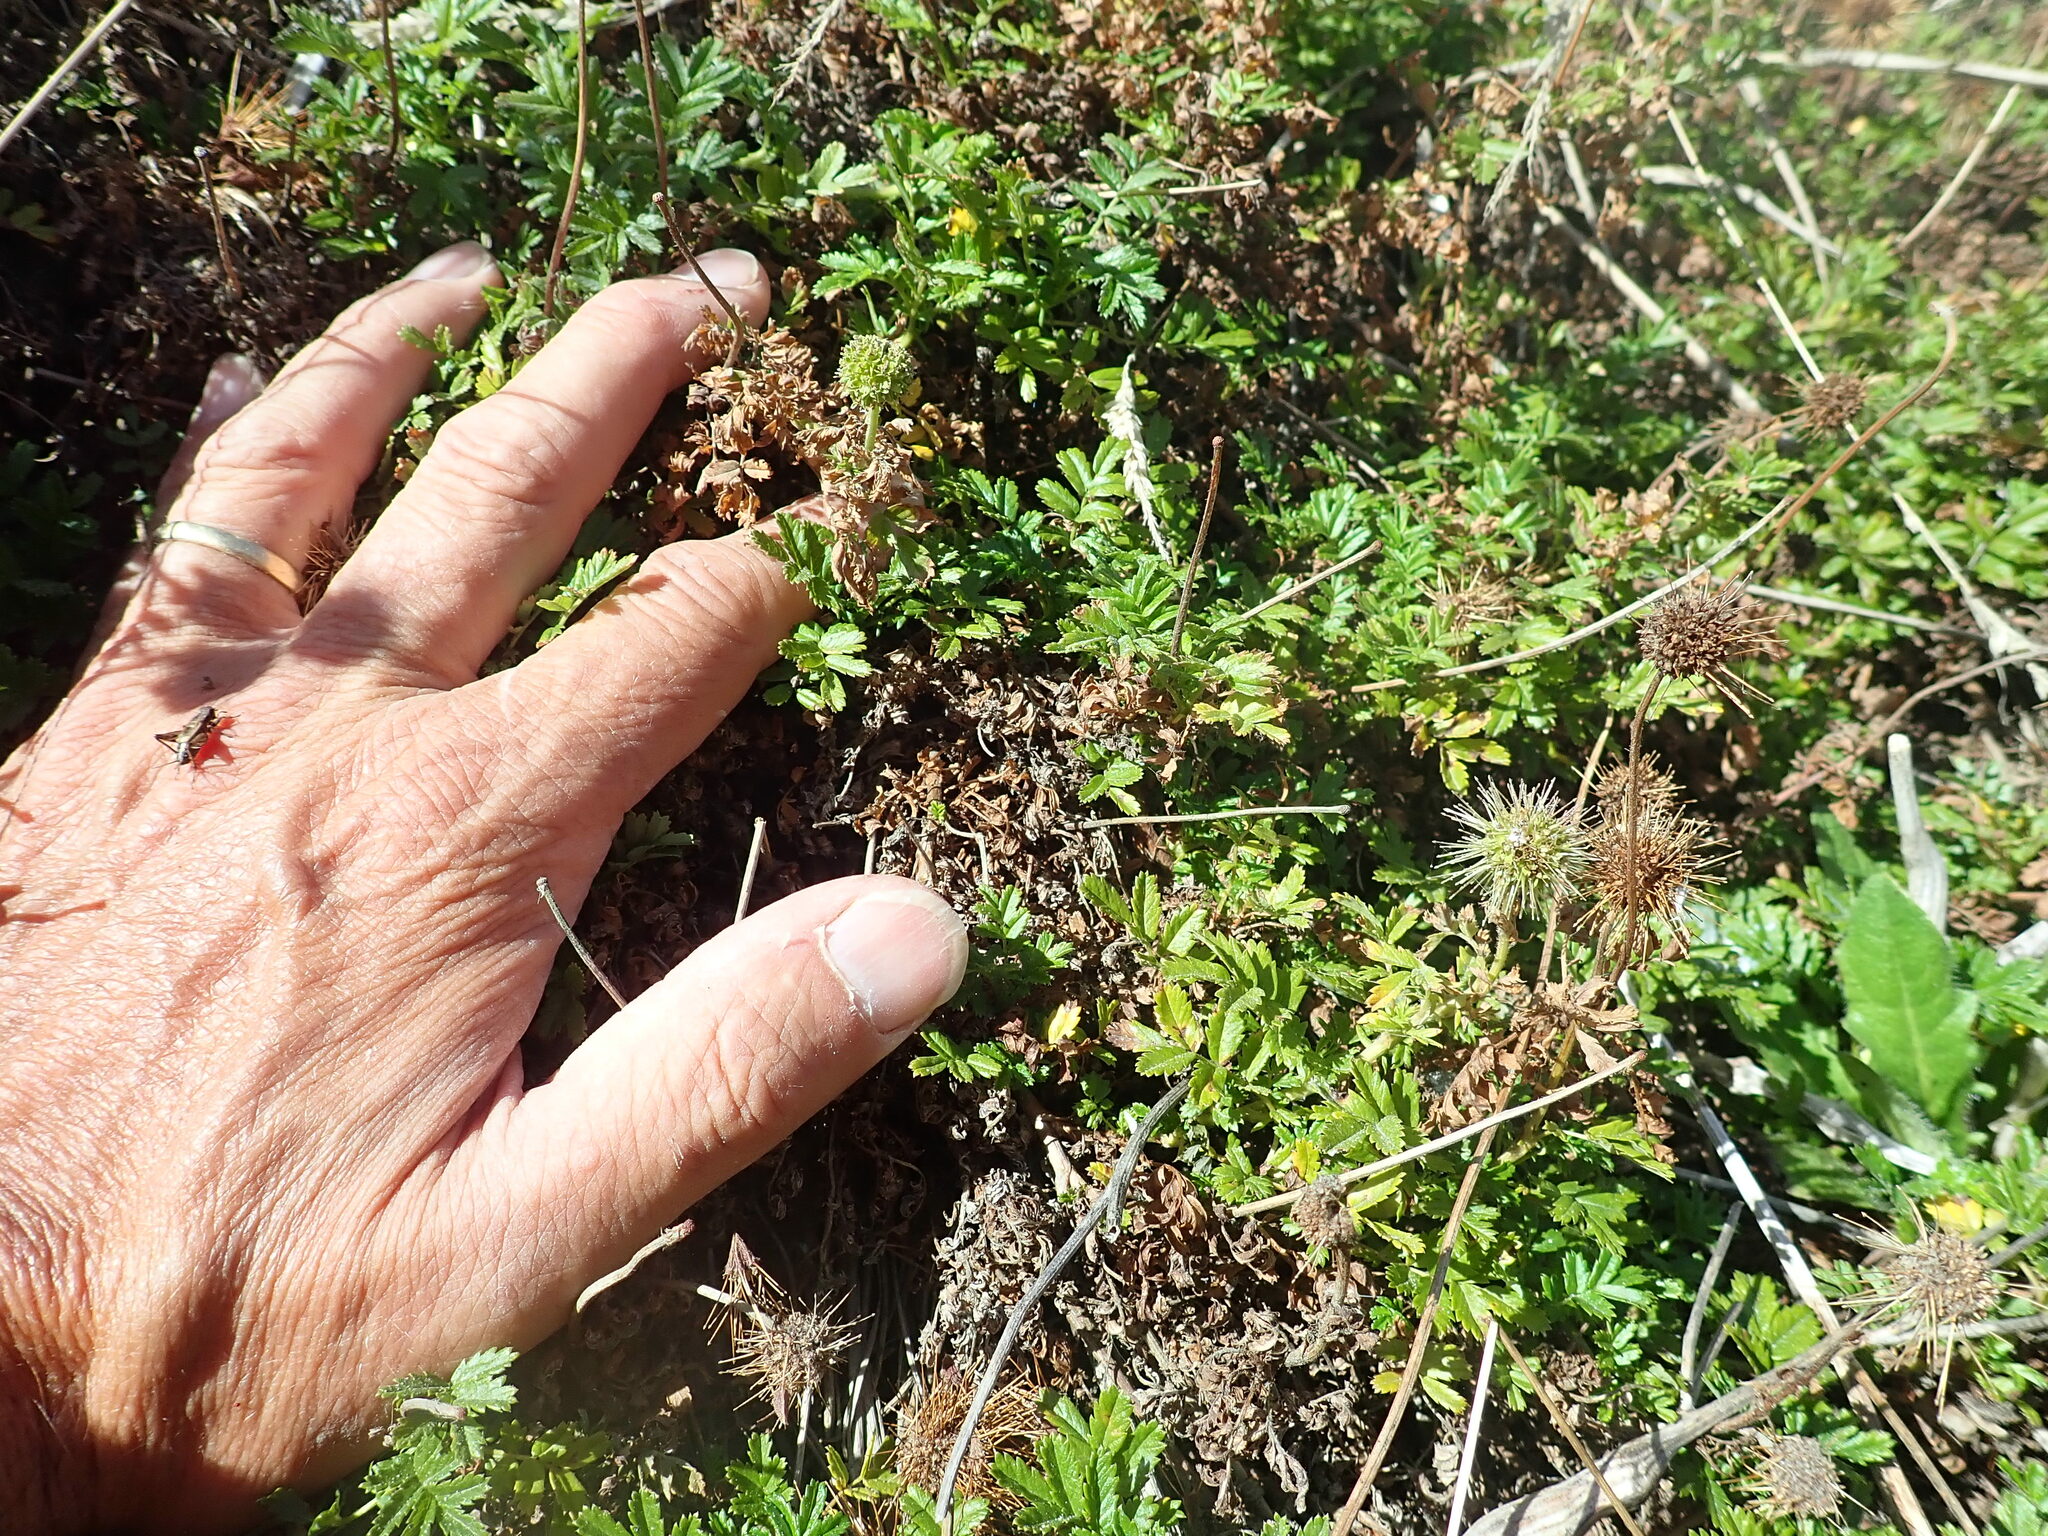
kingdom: Plantae
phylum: Tracheophyta
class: Magnoliopsida
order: Rosales
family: Rosaceae
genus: Acaena
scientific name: Acaena novae-zelandiae
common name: Pirri-pirri-bur
